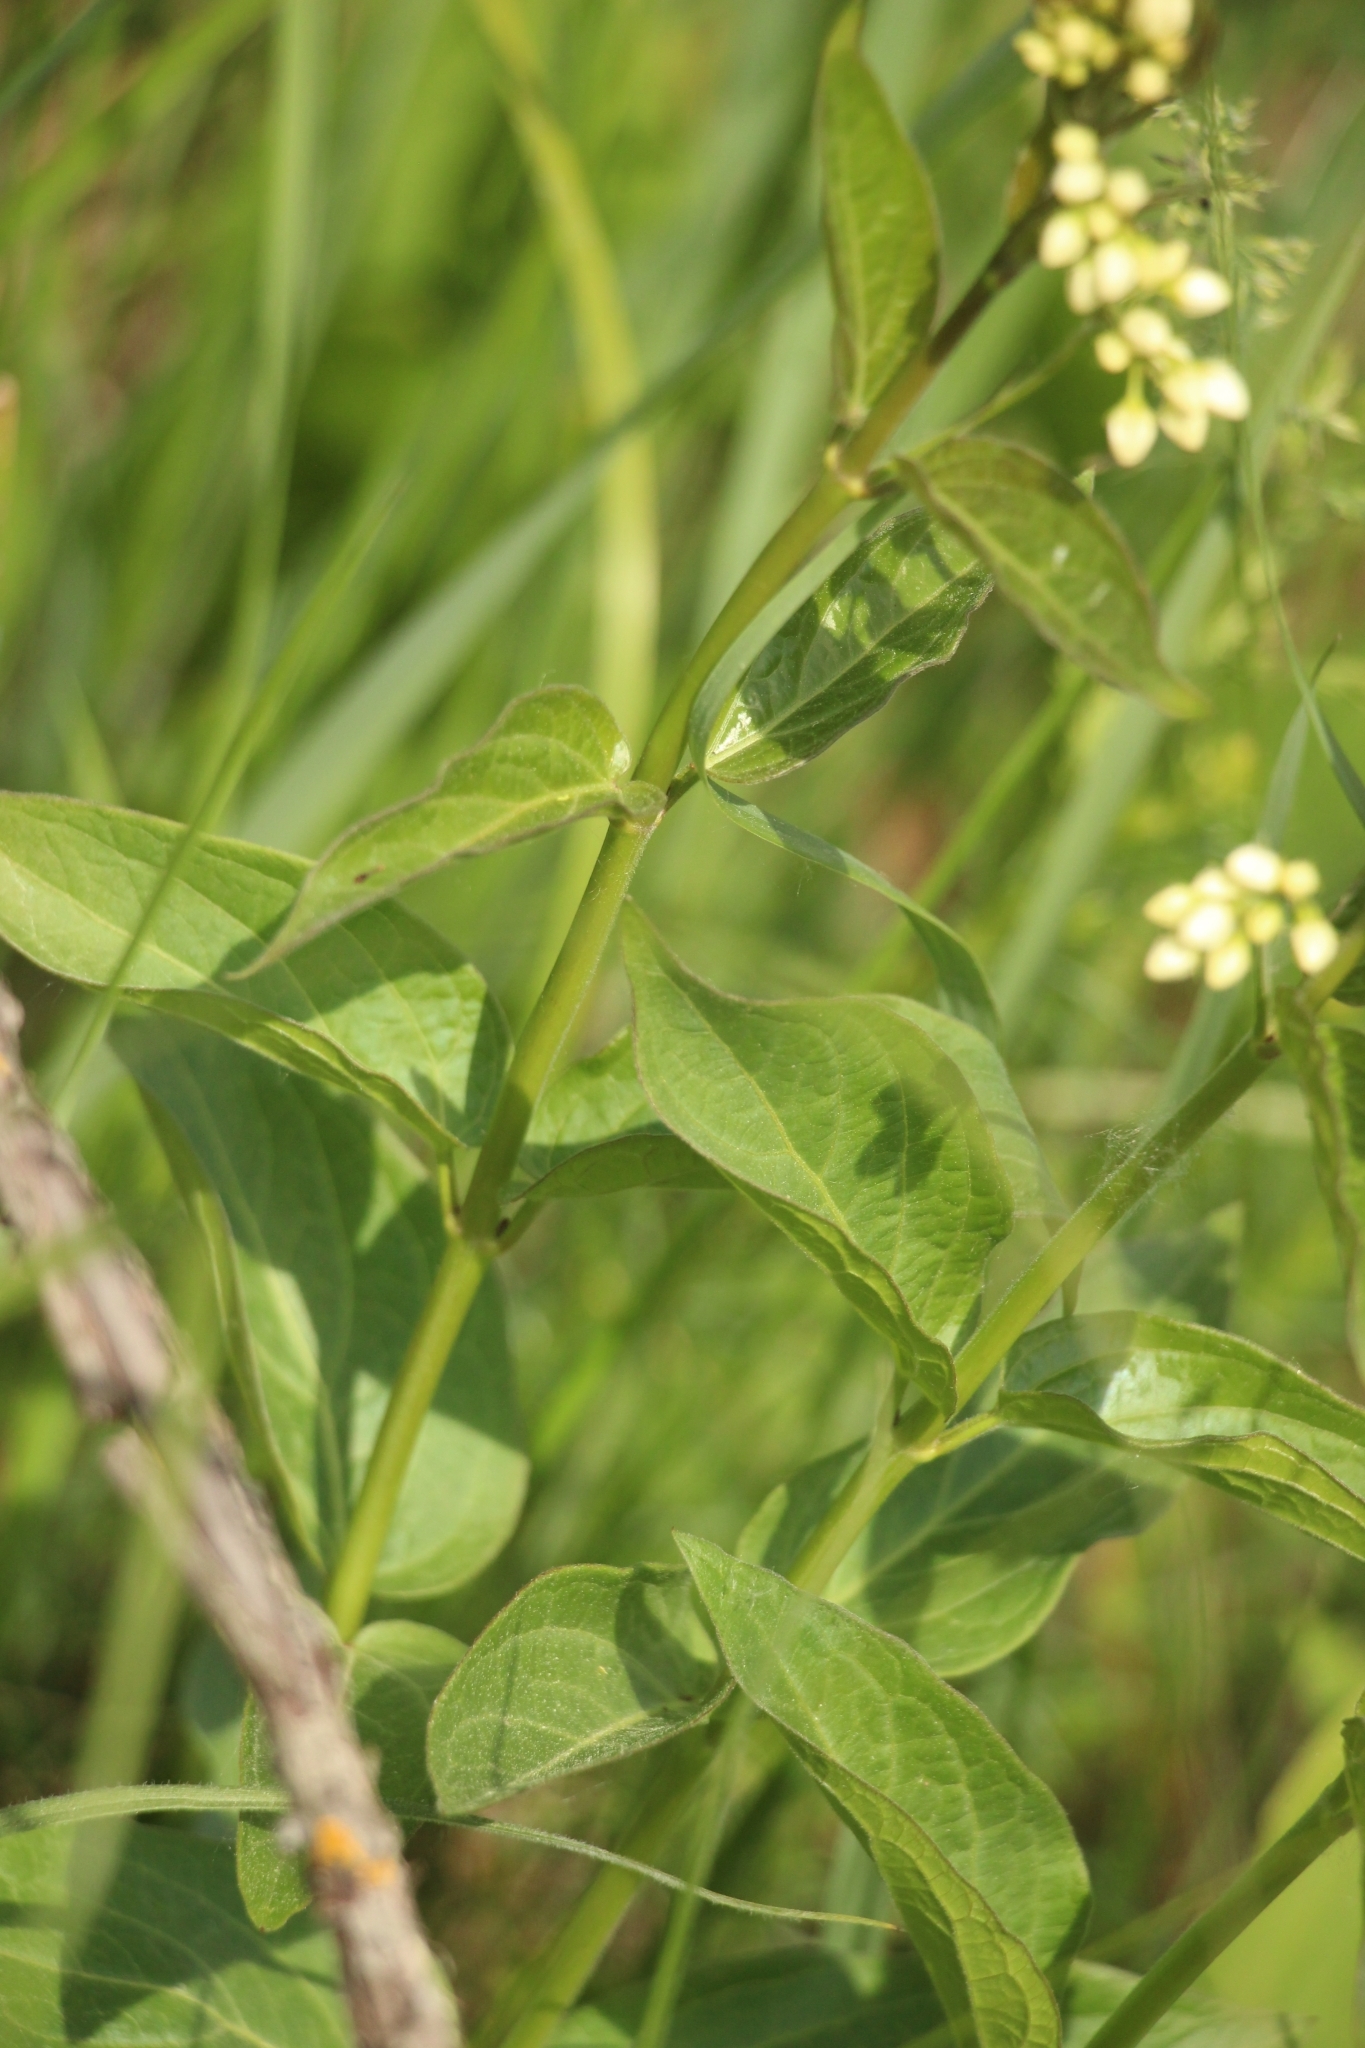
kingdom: Plantae
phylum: Tracheophyta
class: Magnoliopsida
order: Gentianales
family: Apocynaceae
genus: Vincetoxicum
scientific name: Vincetoxicum hirundinaria
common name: White swallowwort
